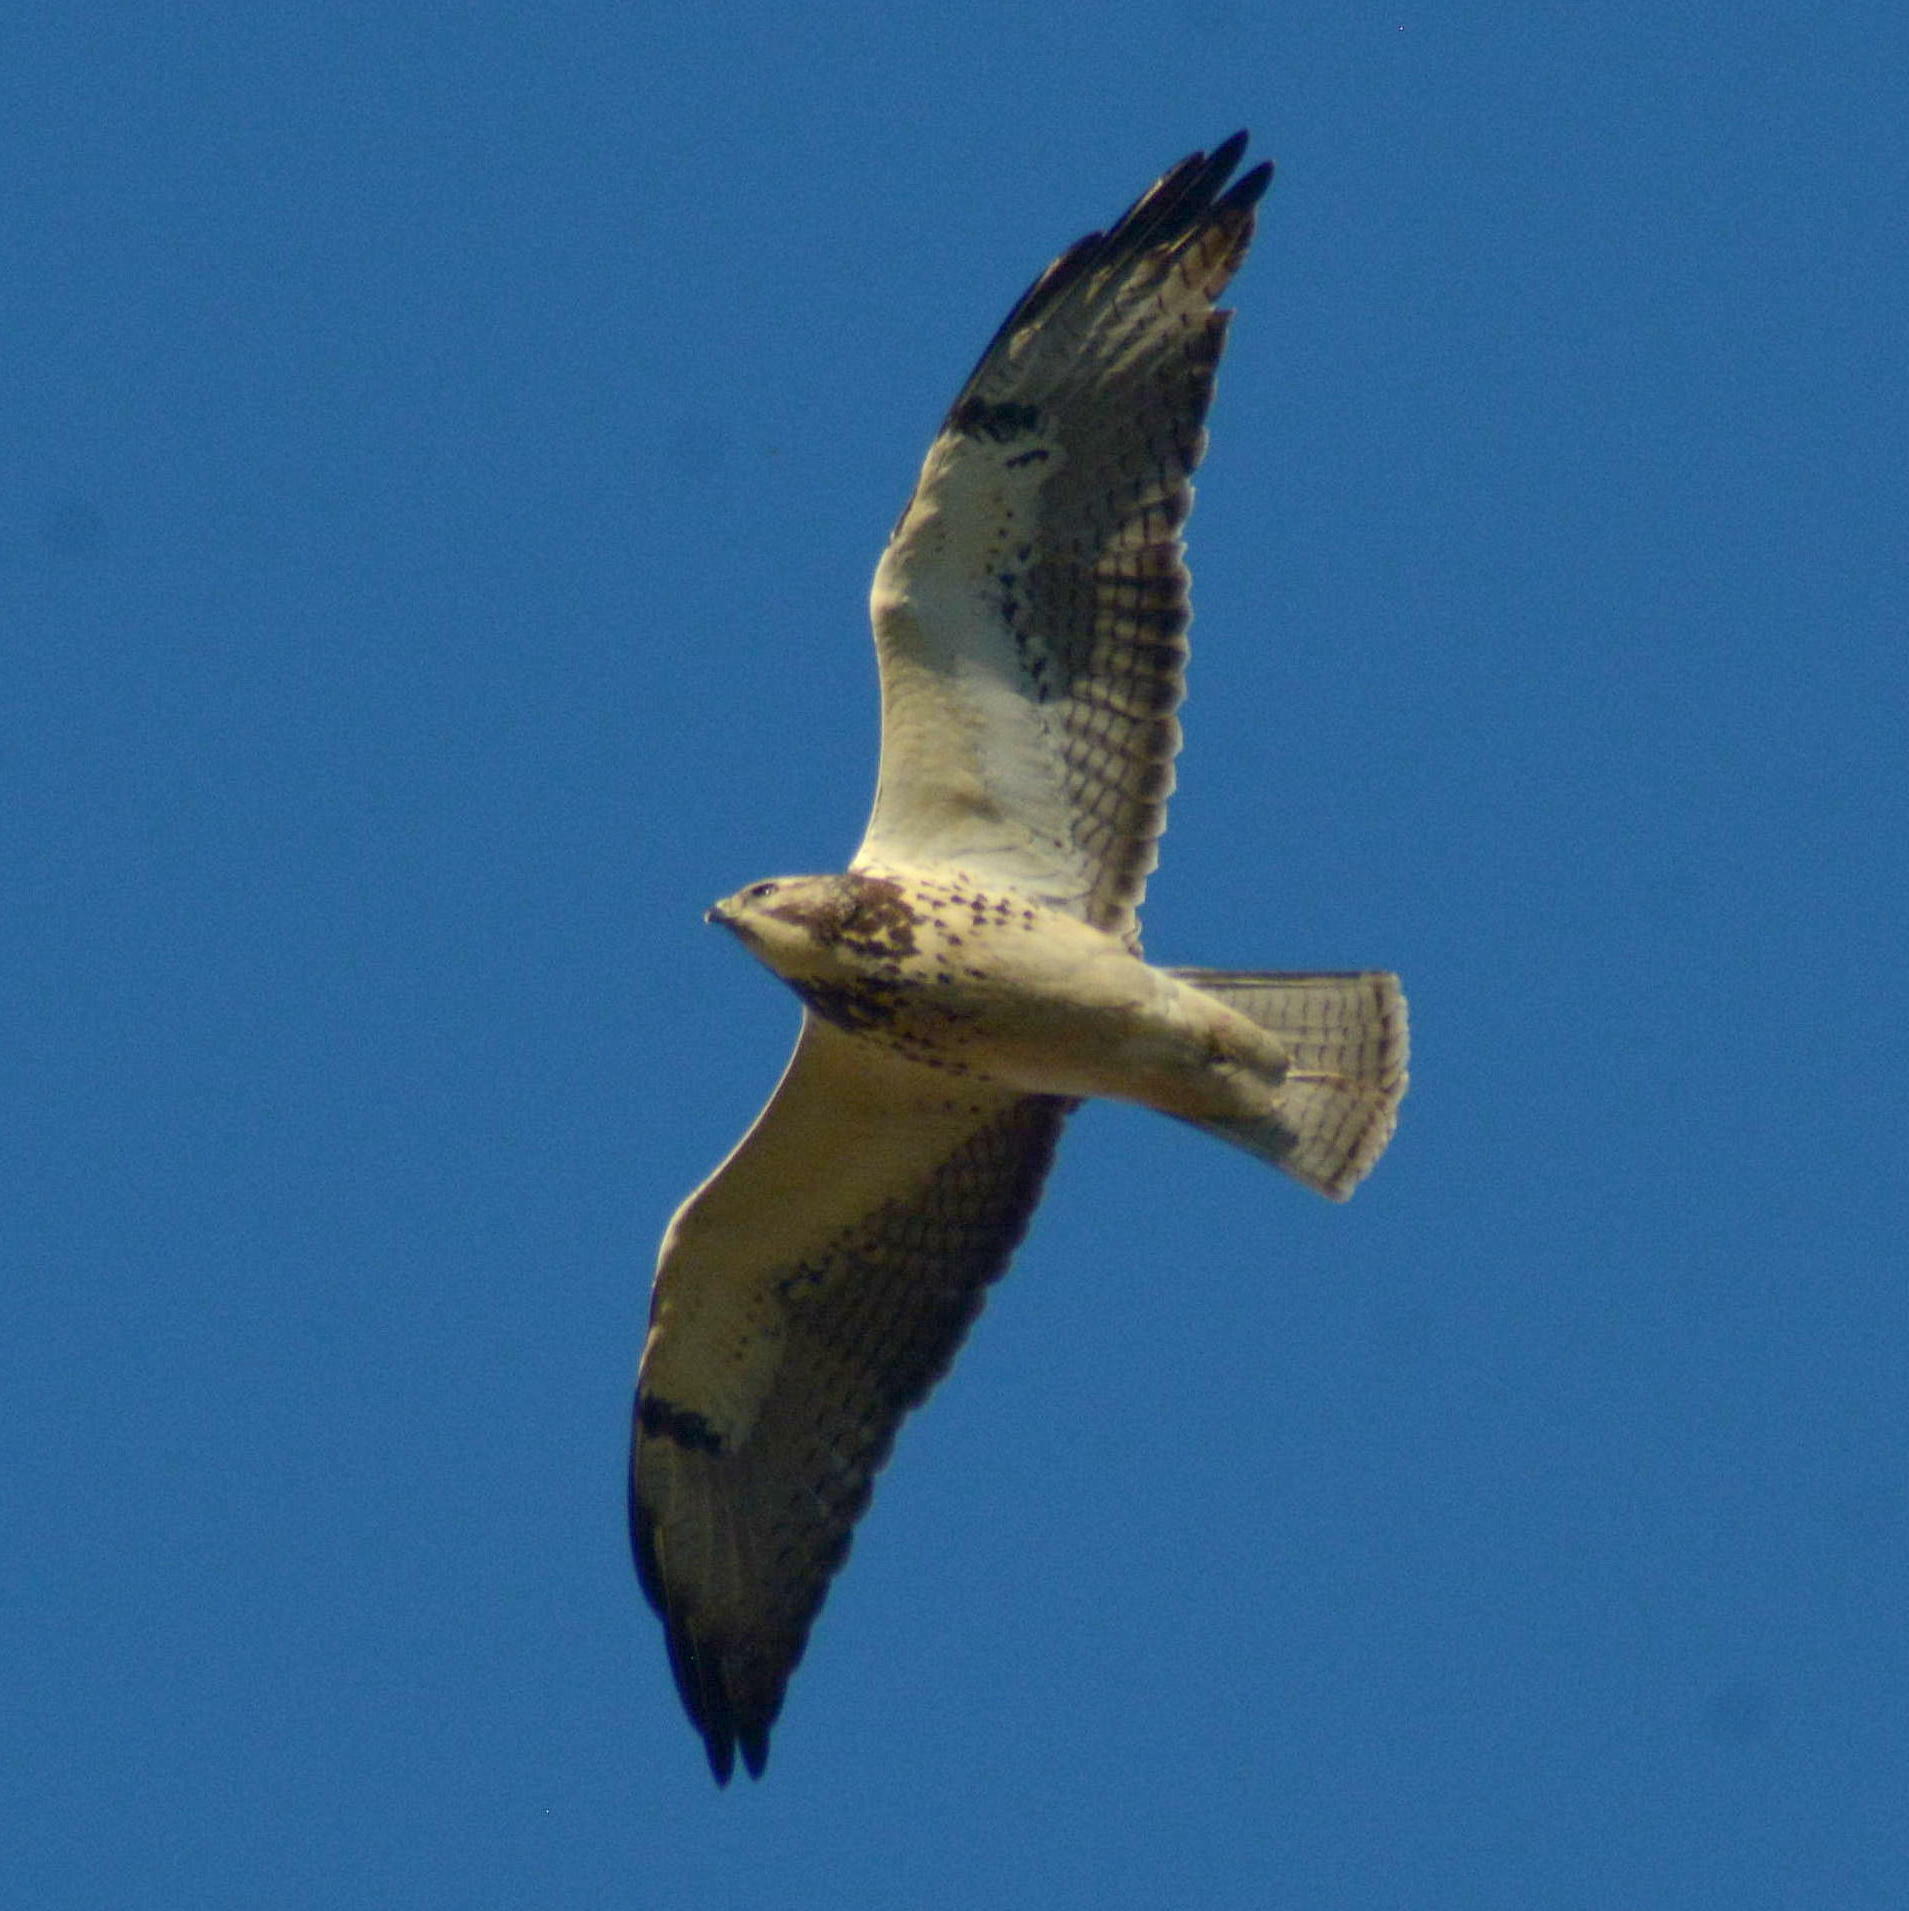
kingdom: Animalia
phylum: Chordata
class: Aves
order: Accipitriformes
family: Accipitridae
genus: Buteo
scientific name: Buteo swainsoni
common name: Swainson's hawk
